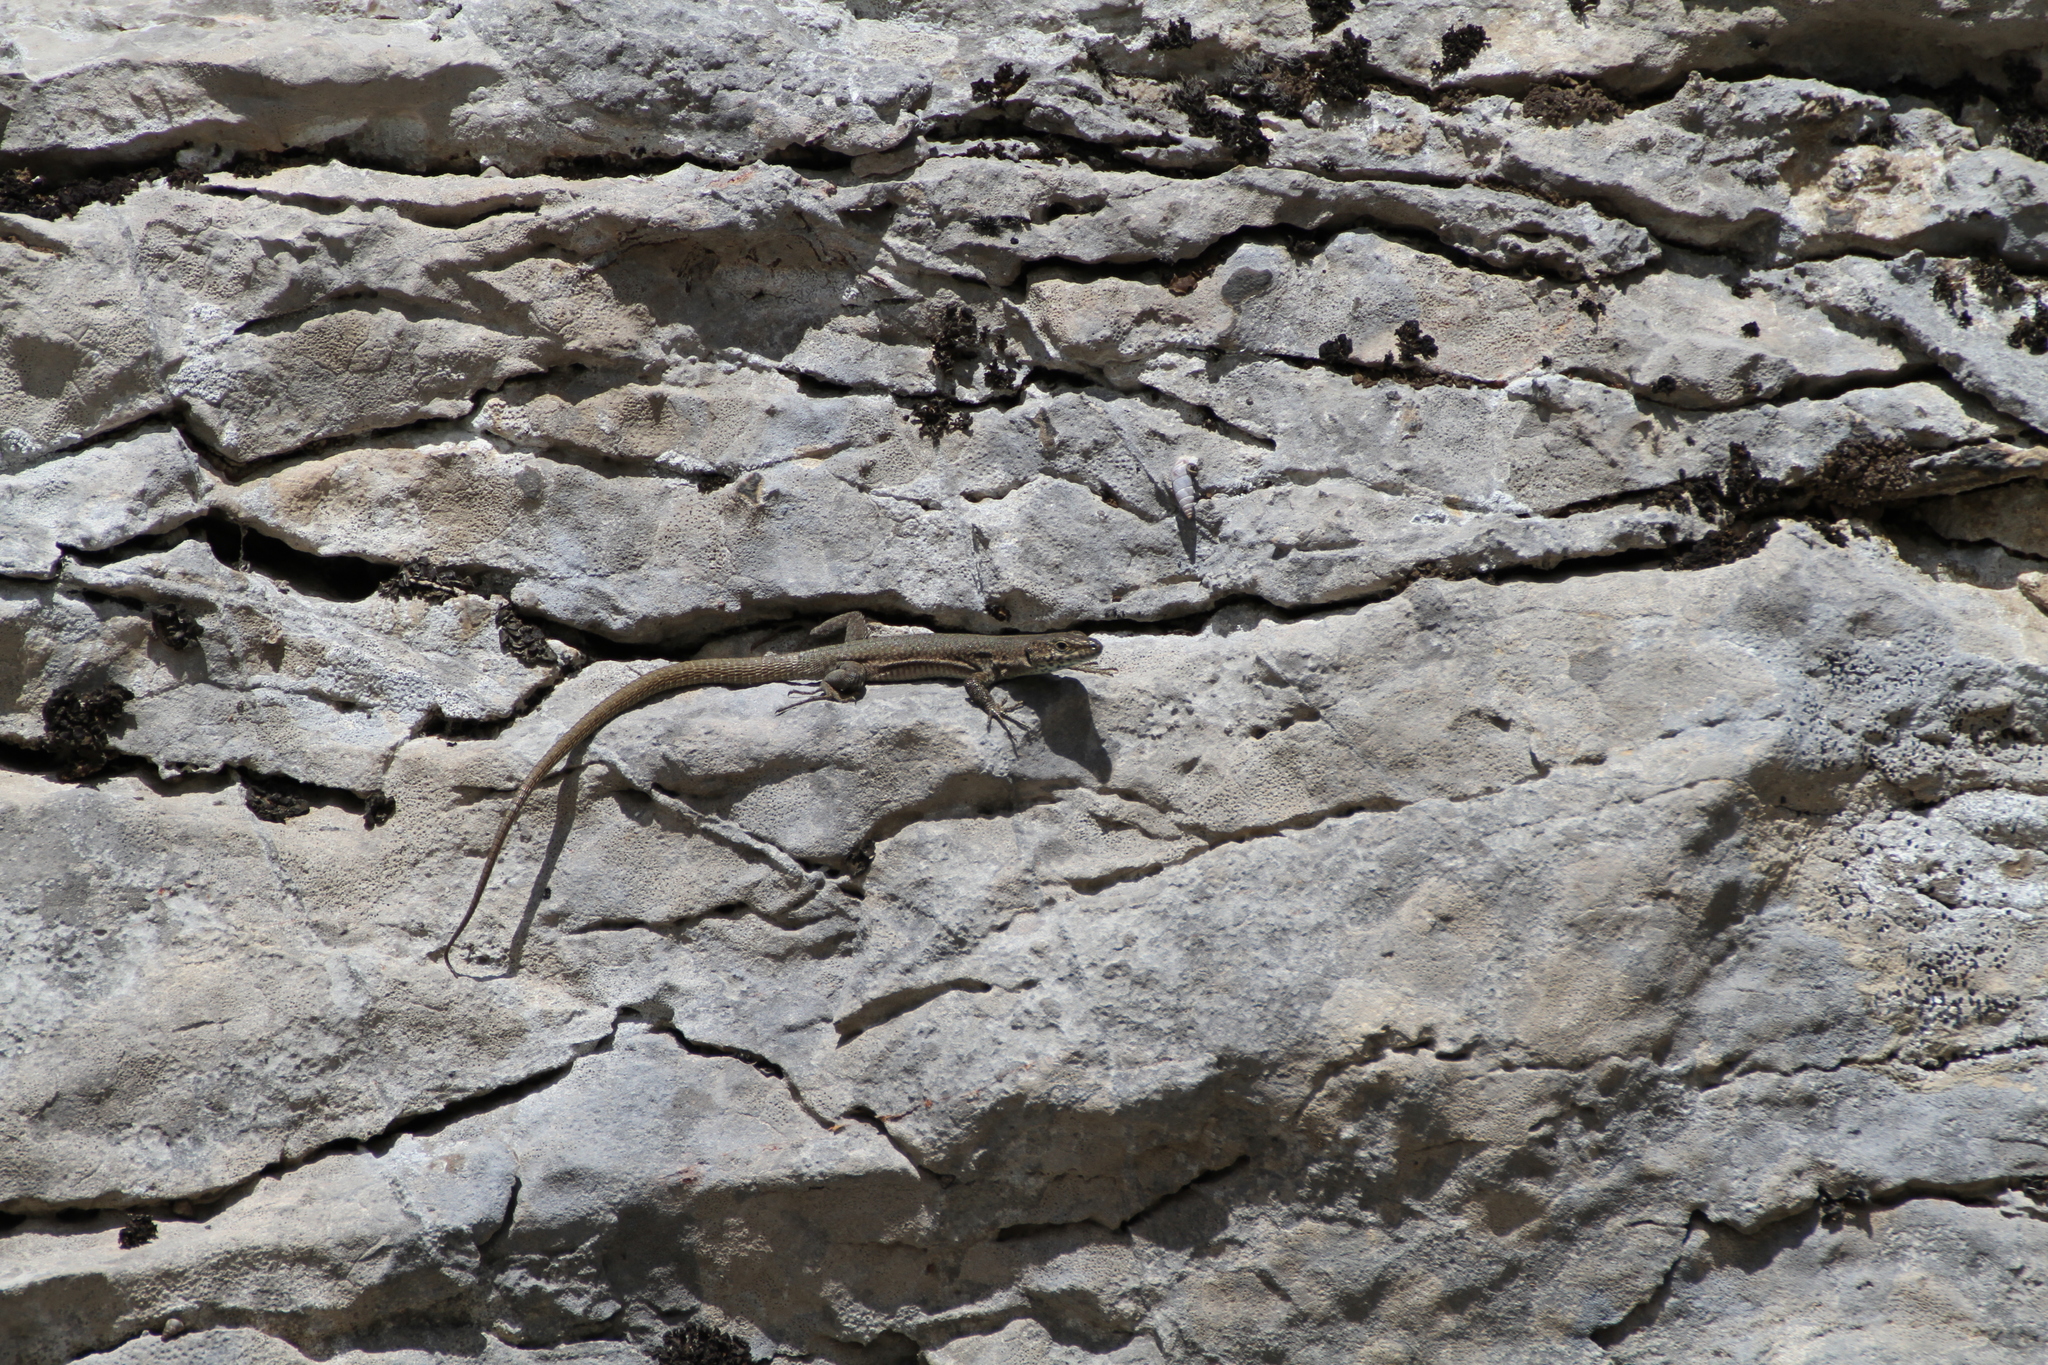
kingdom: Animalia
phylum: Chordata
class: Squamata
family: Lacertidae
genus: Podarcis
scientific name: Podarcis liolepis
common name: Catalonian wall lizard
